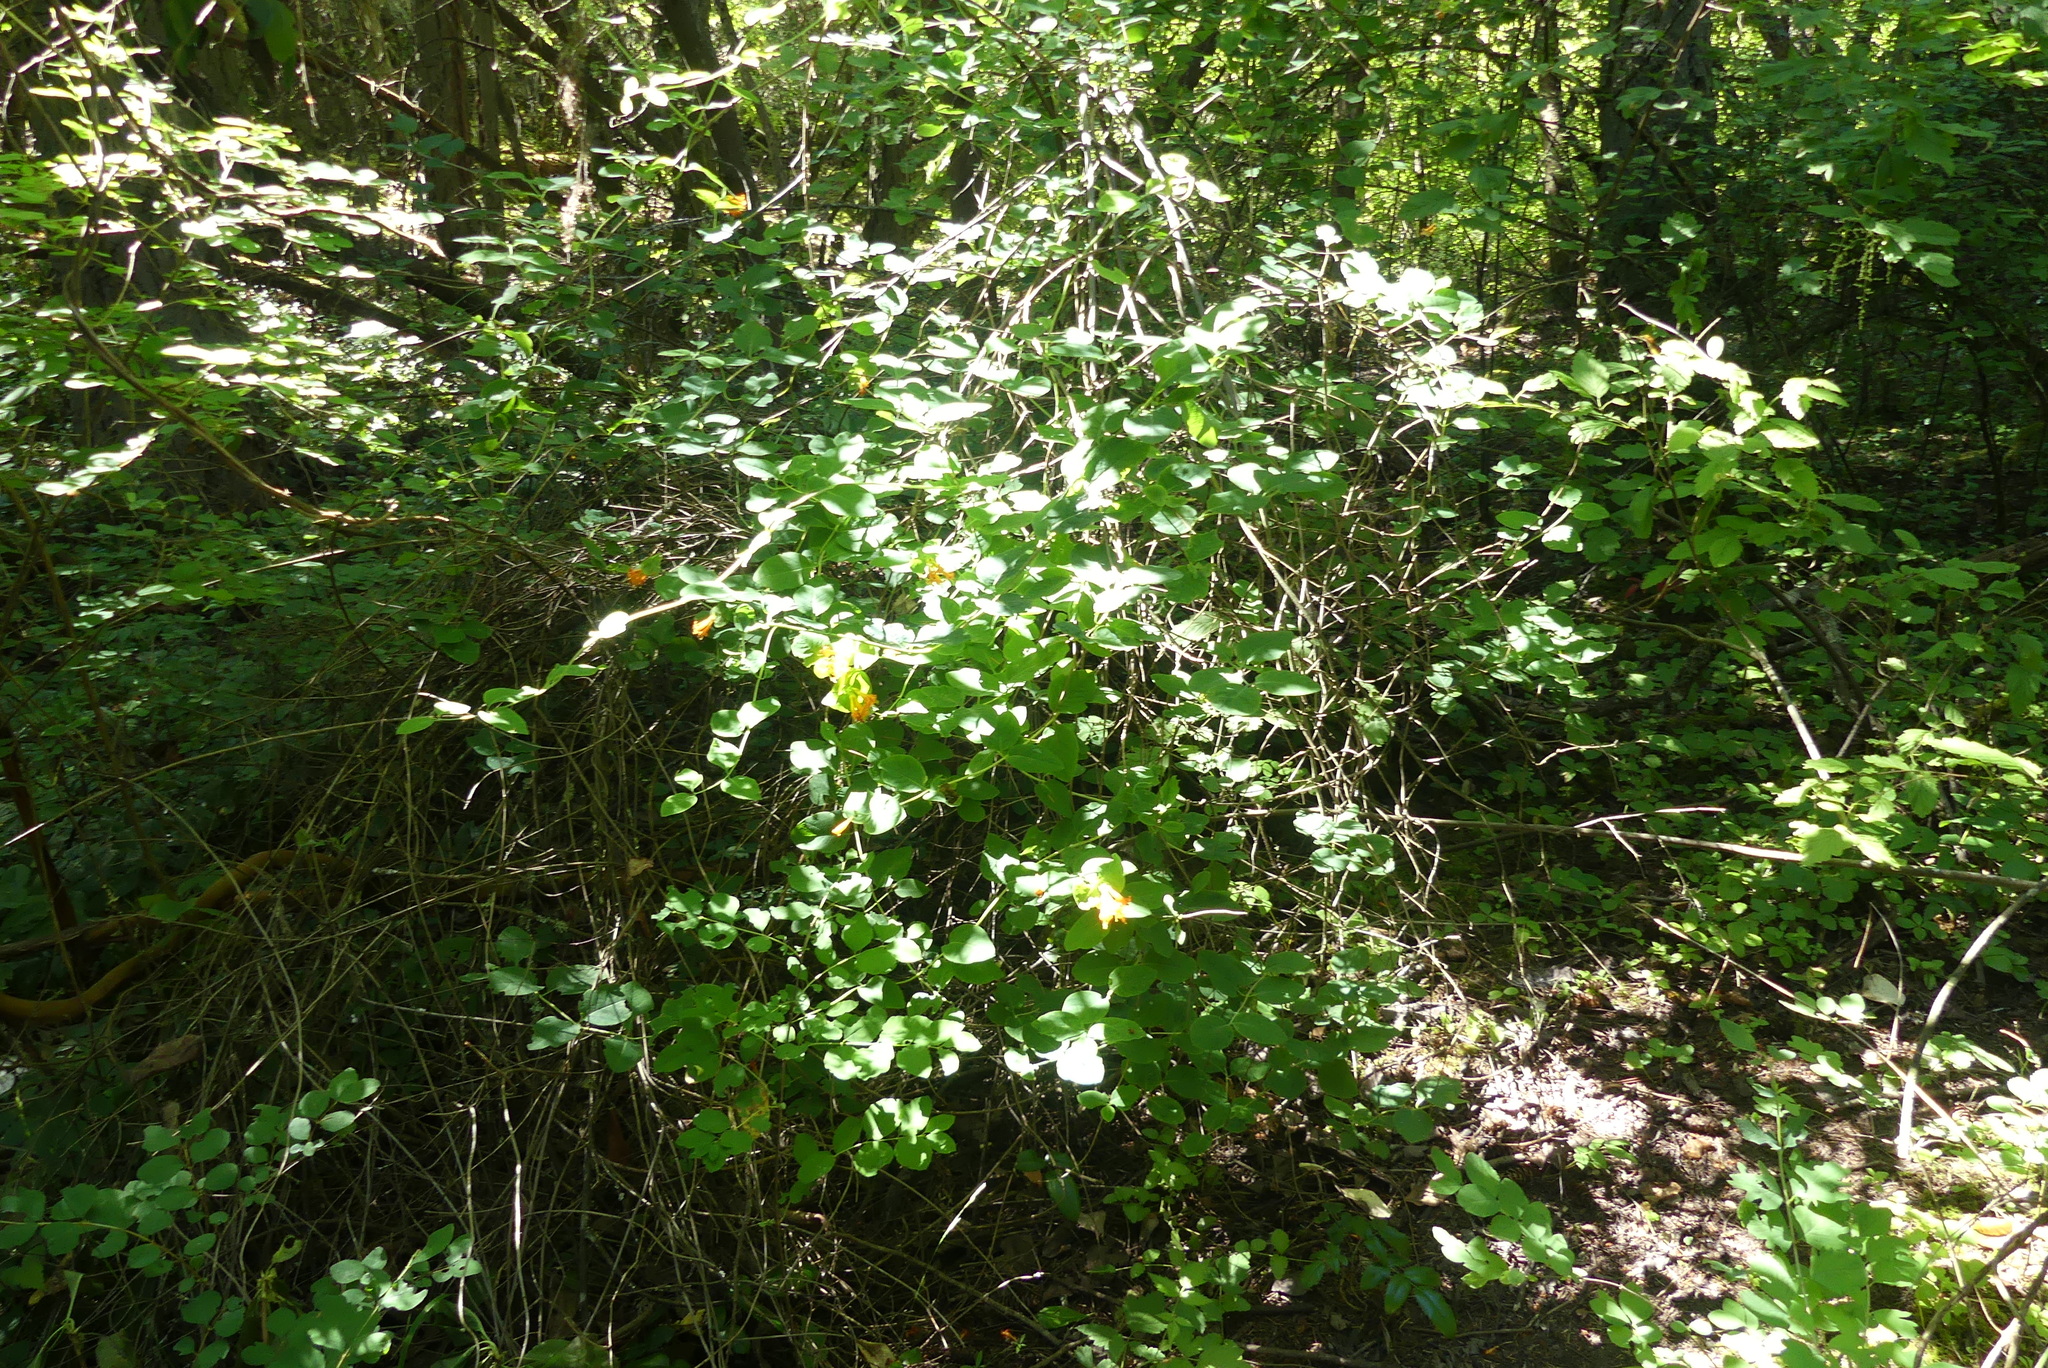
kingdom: Plantae
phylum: Tracheophyta
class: Magnoliopsida
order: Dipsacales
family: Caprifoliaceae
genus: Lonicera
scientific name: Lonicera ciliosa
